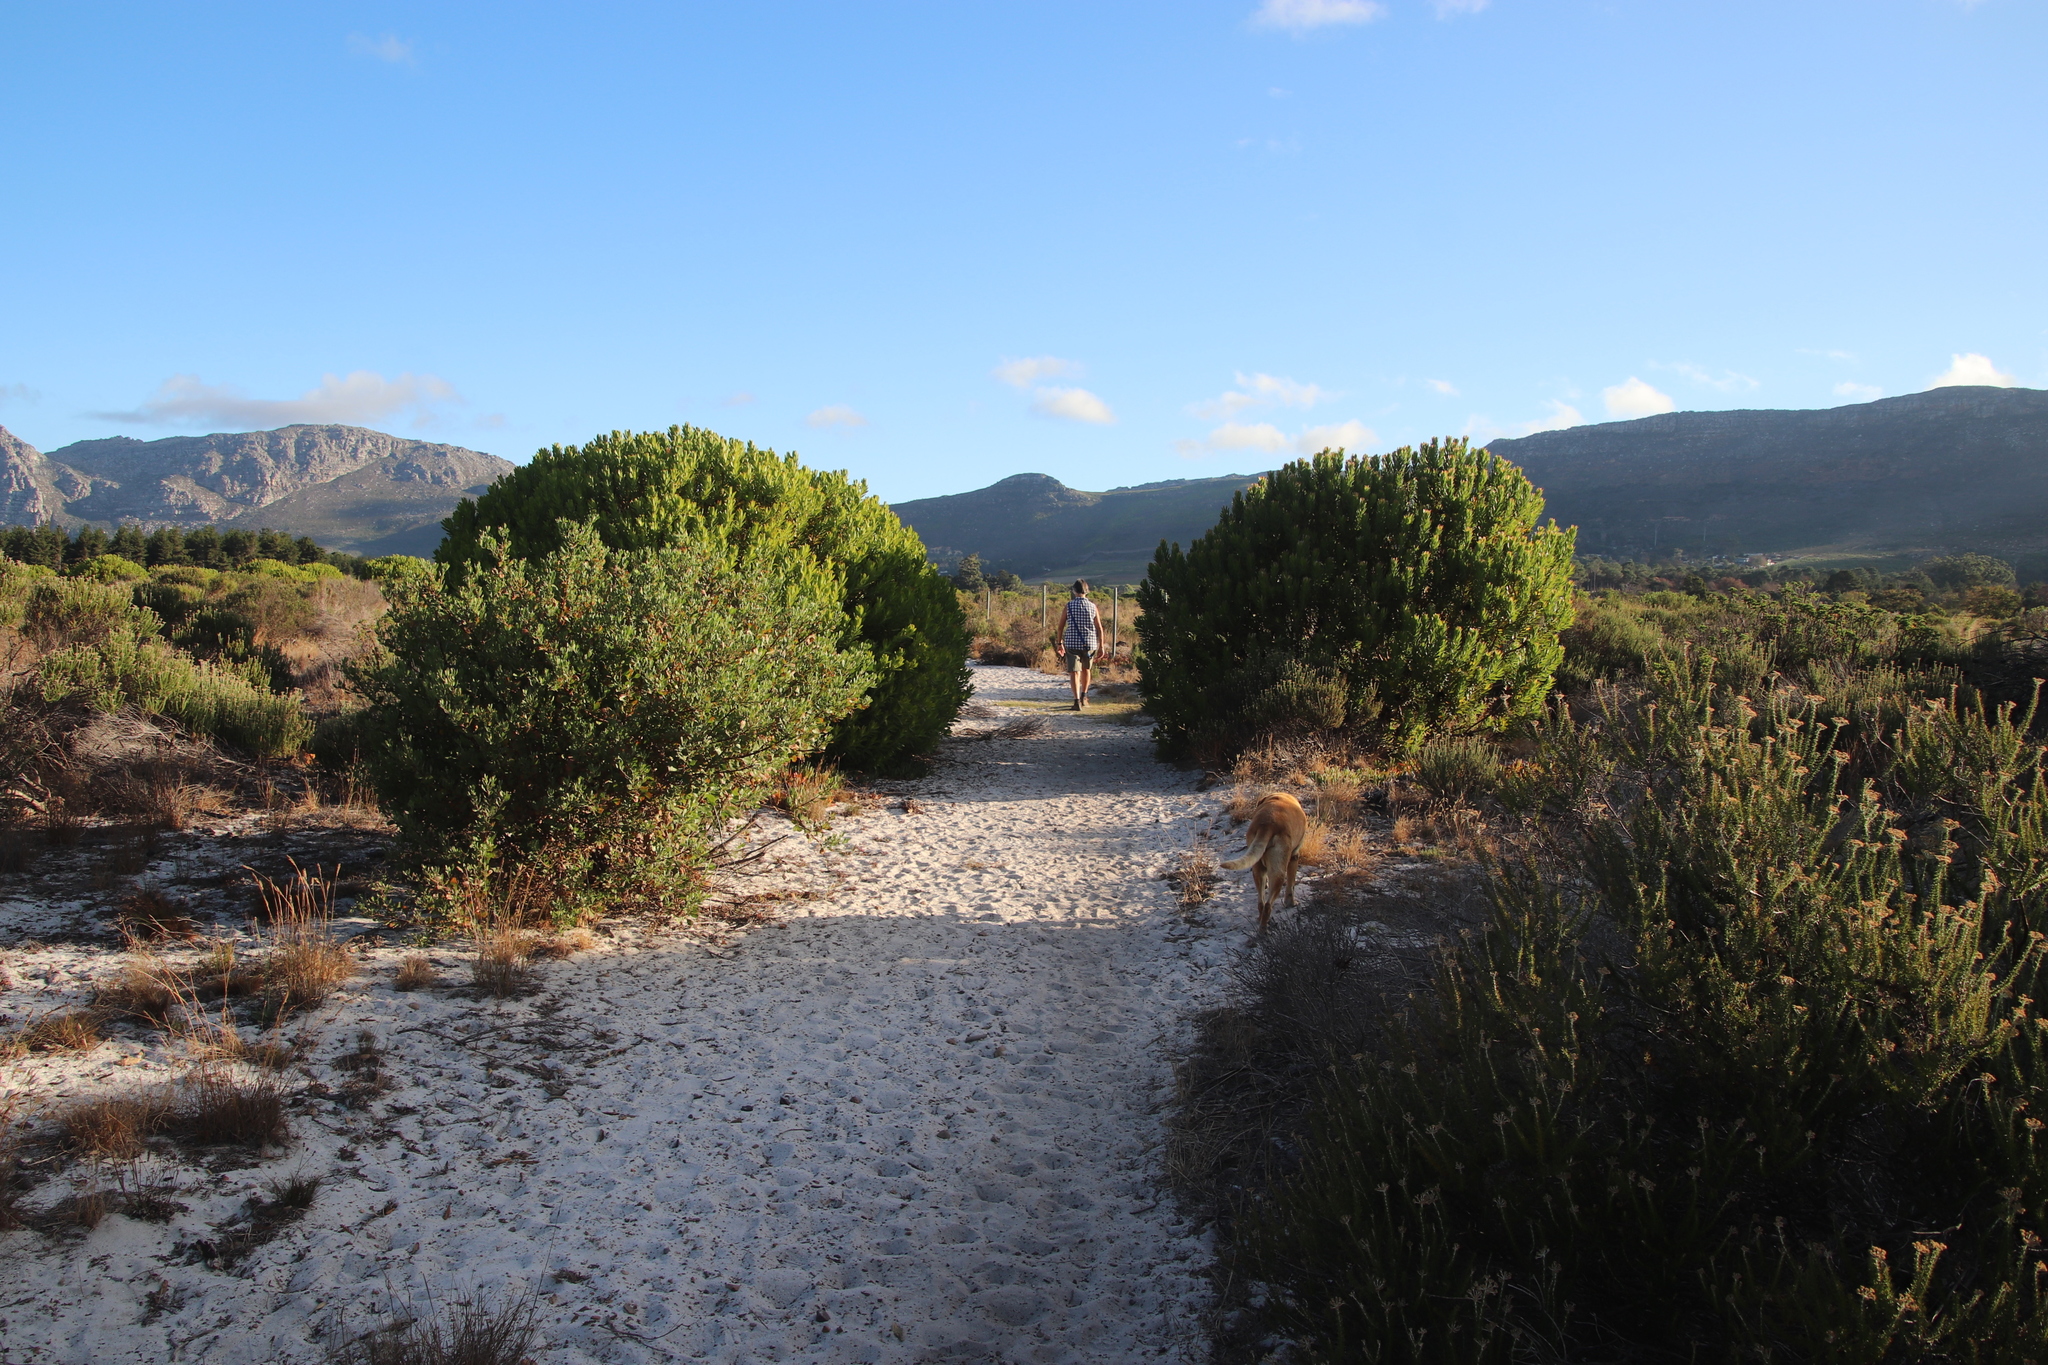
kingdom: Plantae
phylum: Tracheophyta
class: Magnoliopsida
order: Proteales
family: Proteaceae
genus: Leucadendron
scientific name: Leucadendron laureolum
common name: Golden sunshinebush
